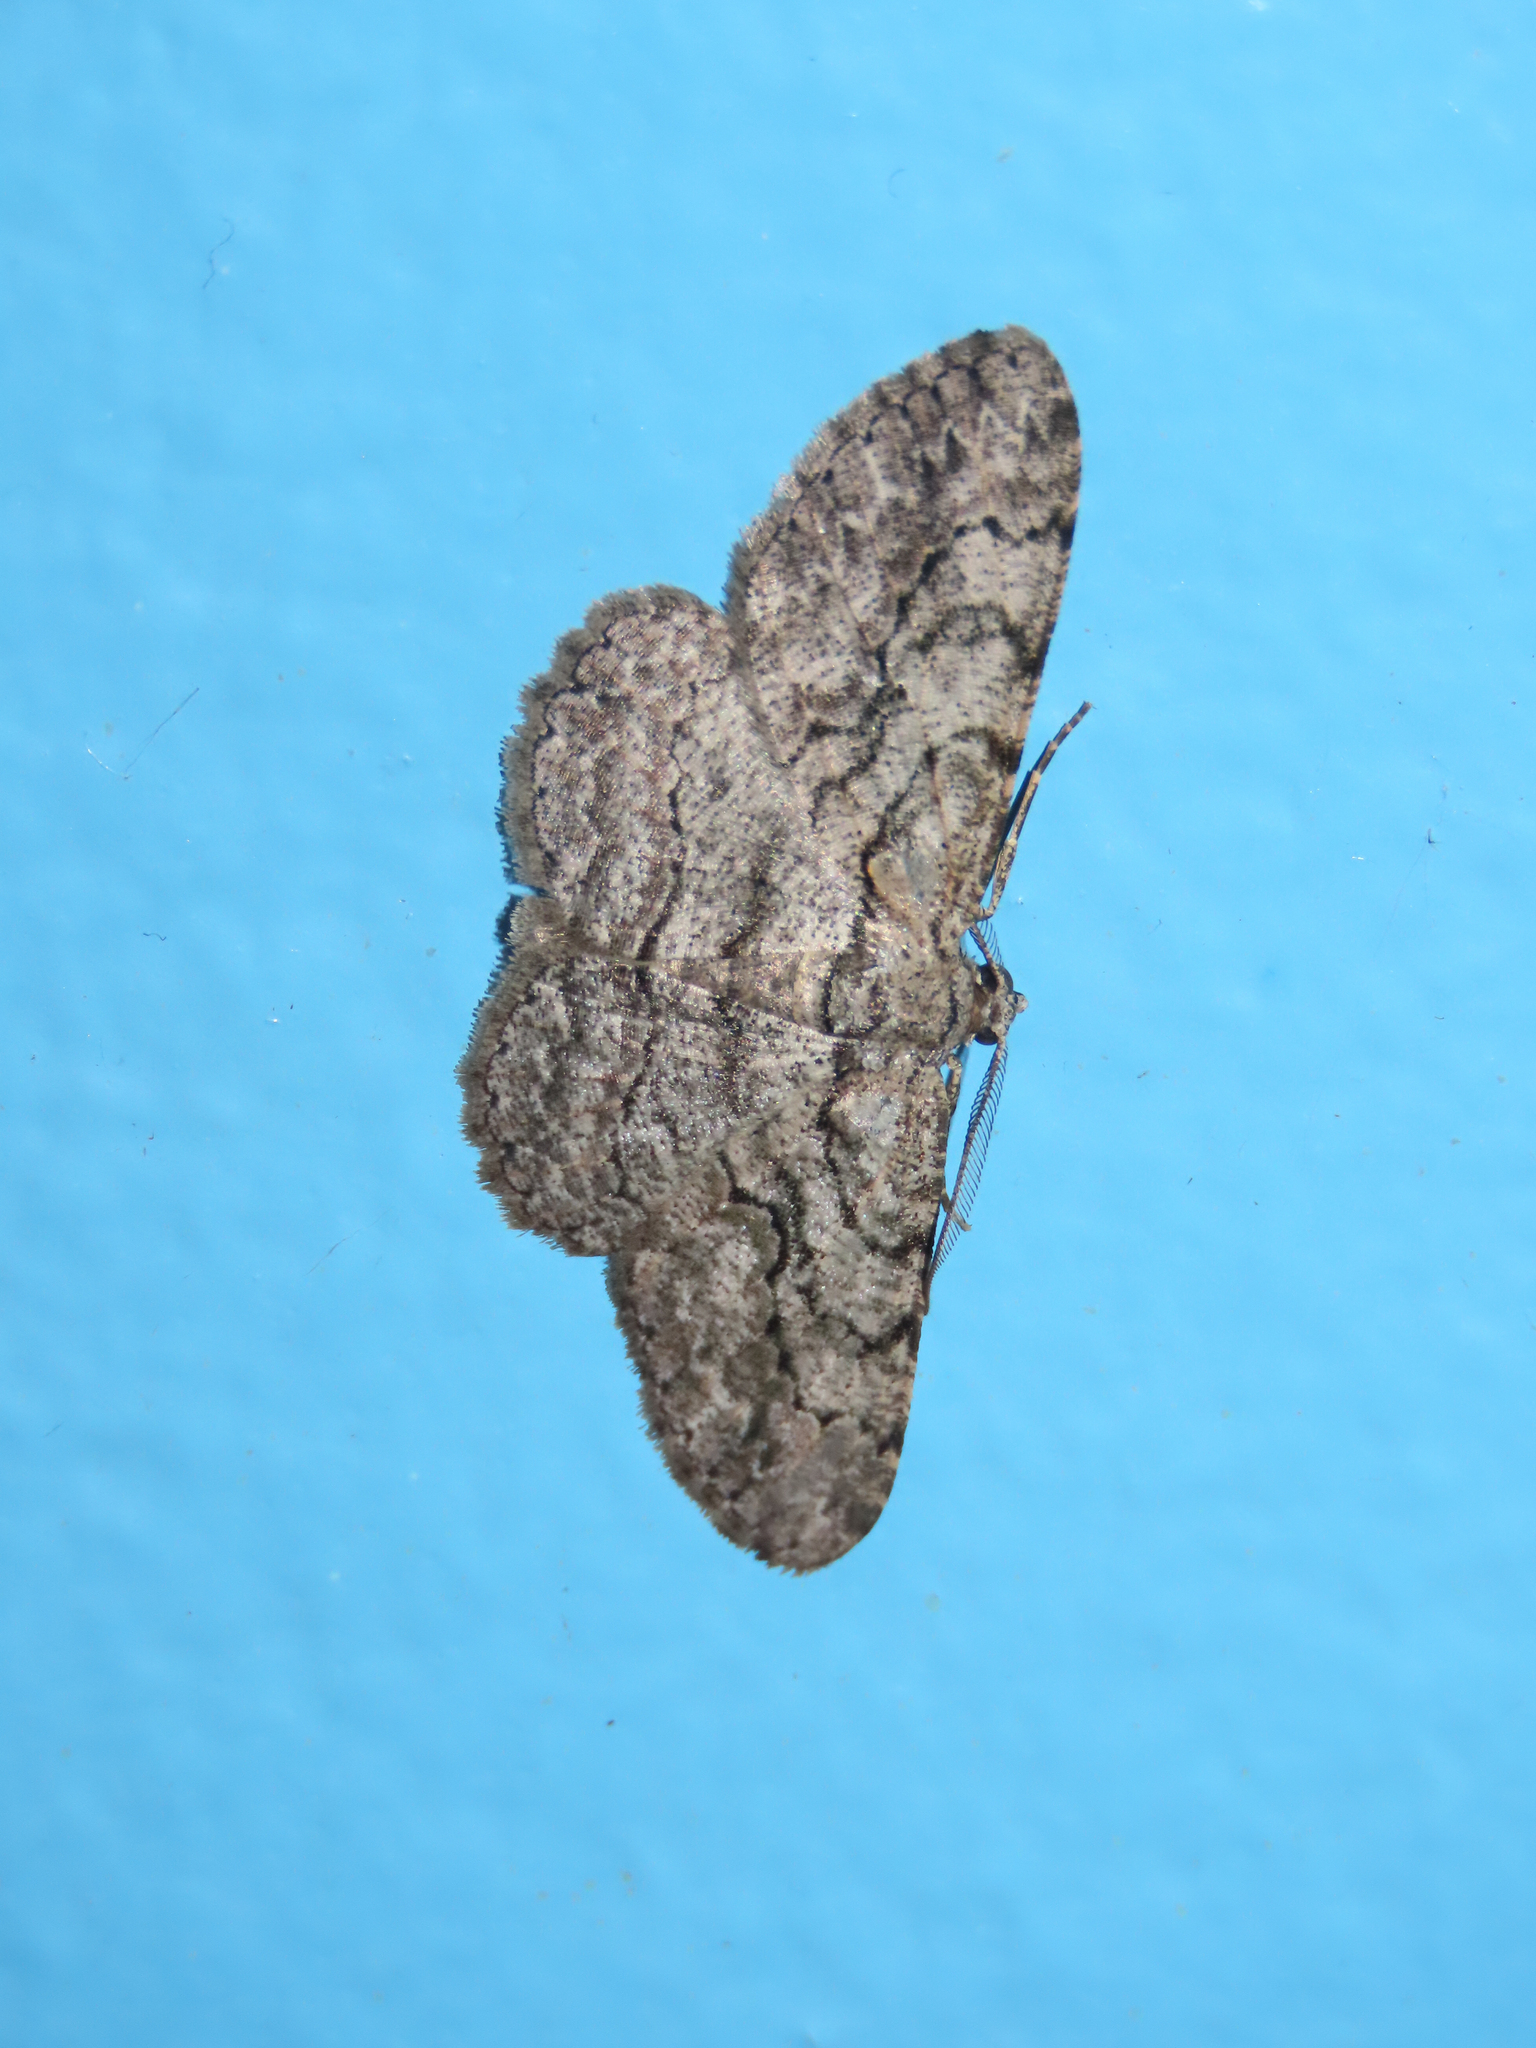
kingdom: Animalia
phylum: Arthropoda
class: Insecta
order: Lepidoptera
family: Geometridae
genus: Anavitrinella
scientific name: Anavitrinella pampinaria
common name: Common gray
